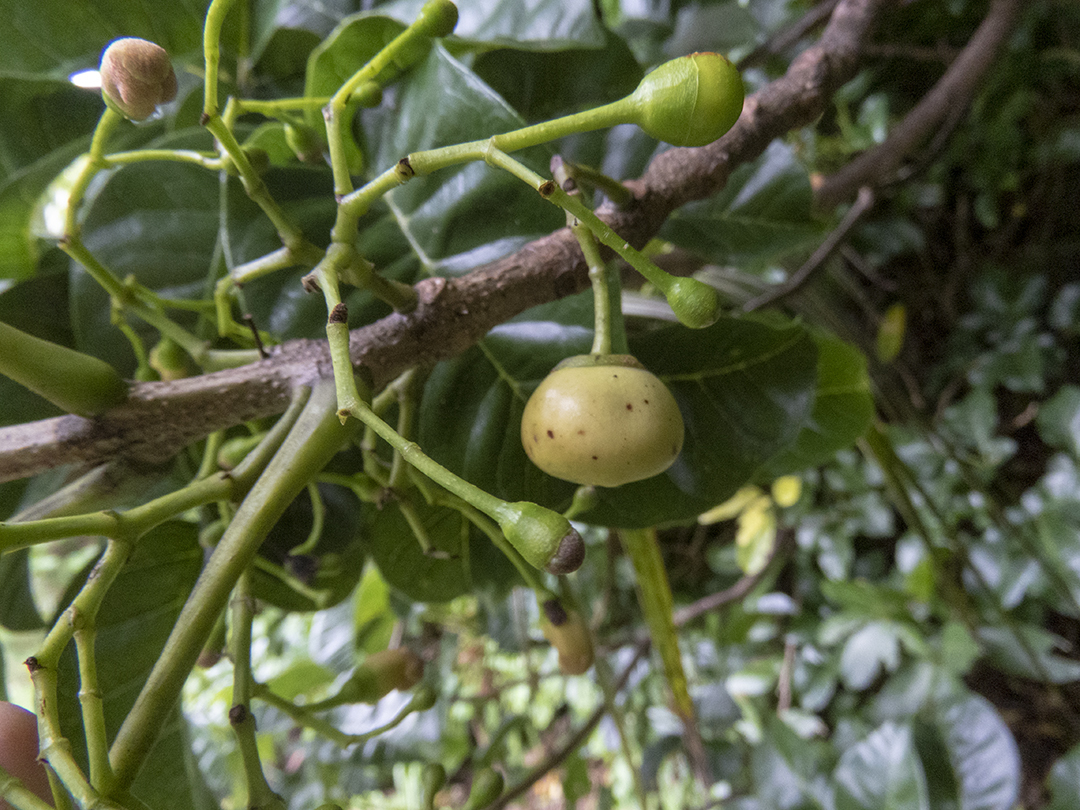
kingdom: Plantae
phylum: Tracheophyta
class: Magnoliopsida
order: Lamiales
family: Lamiaceae
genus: Vitex
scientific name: Vitex lucens
